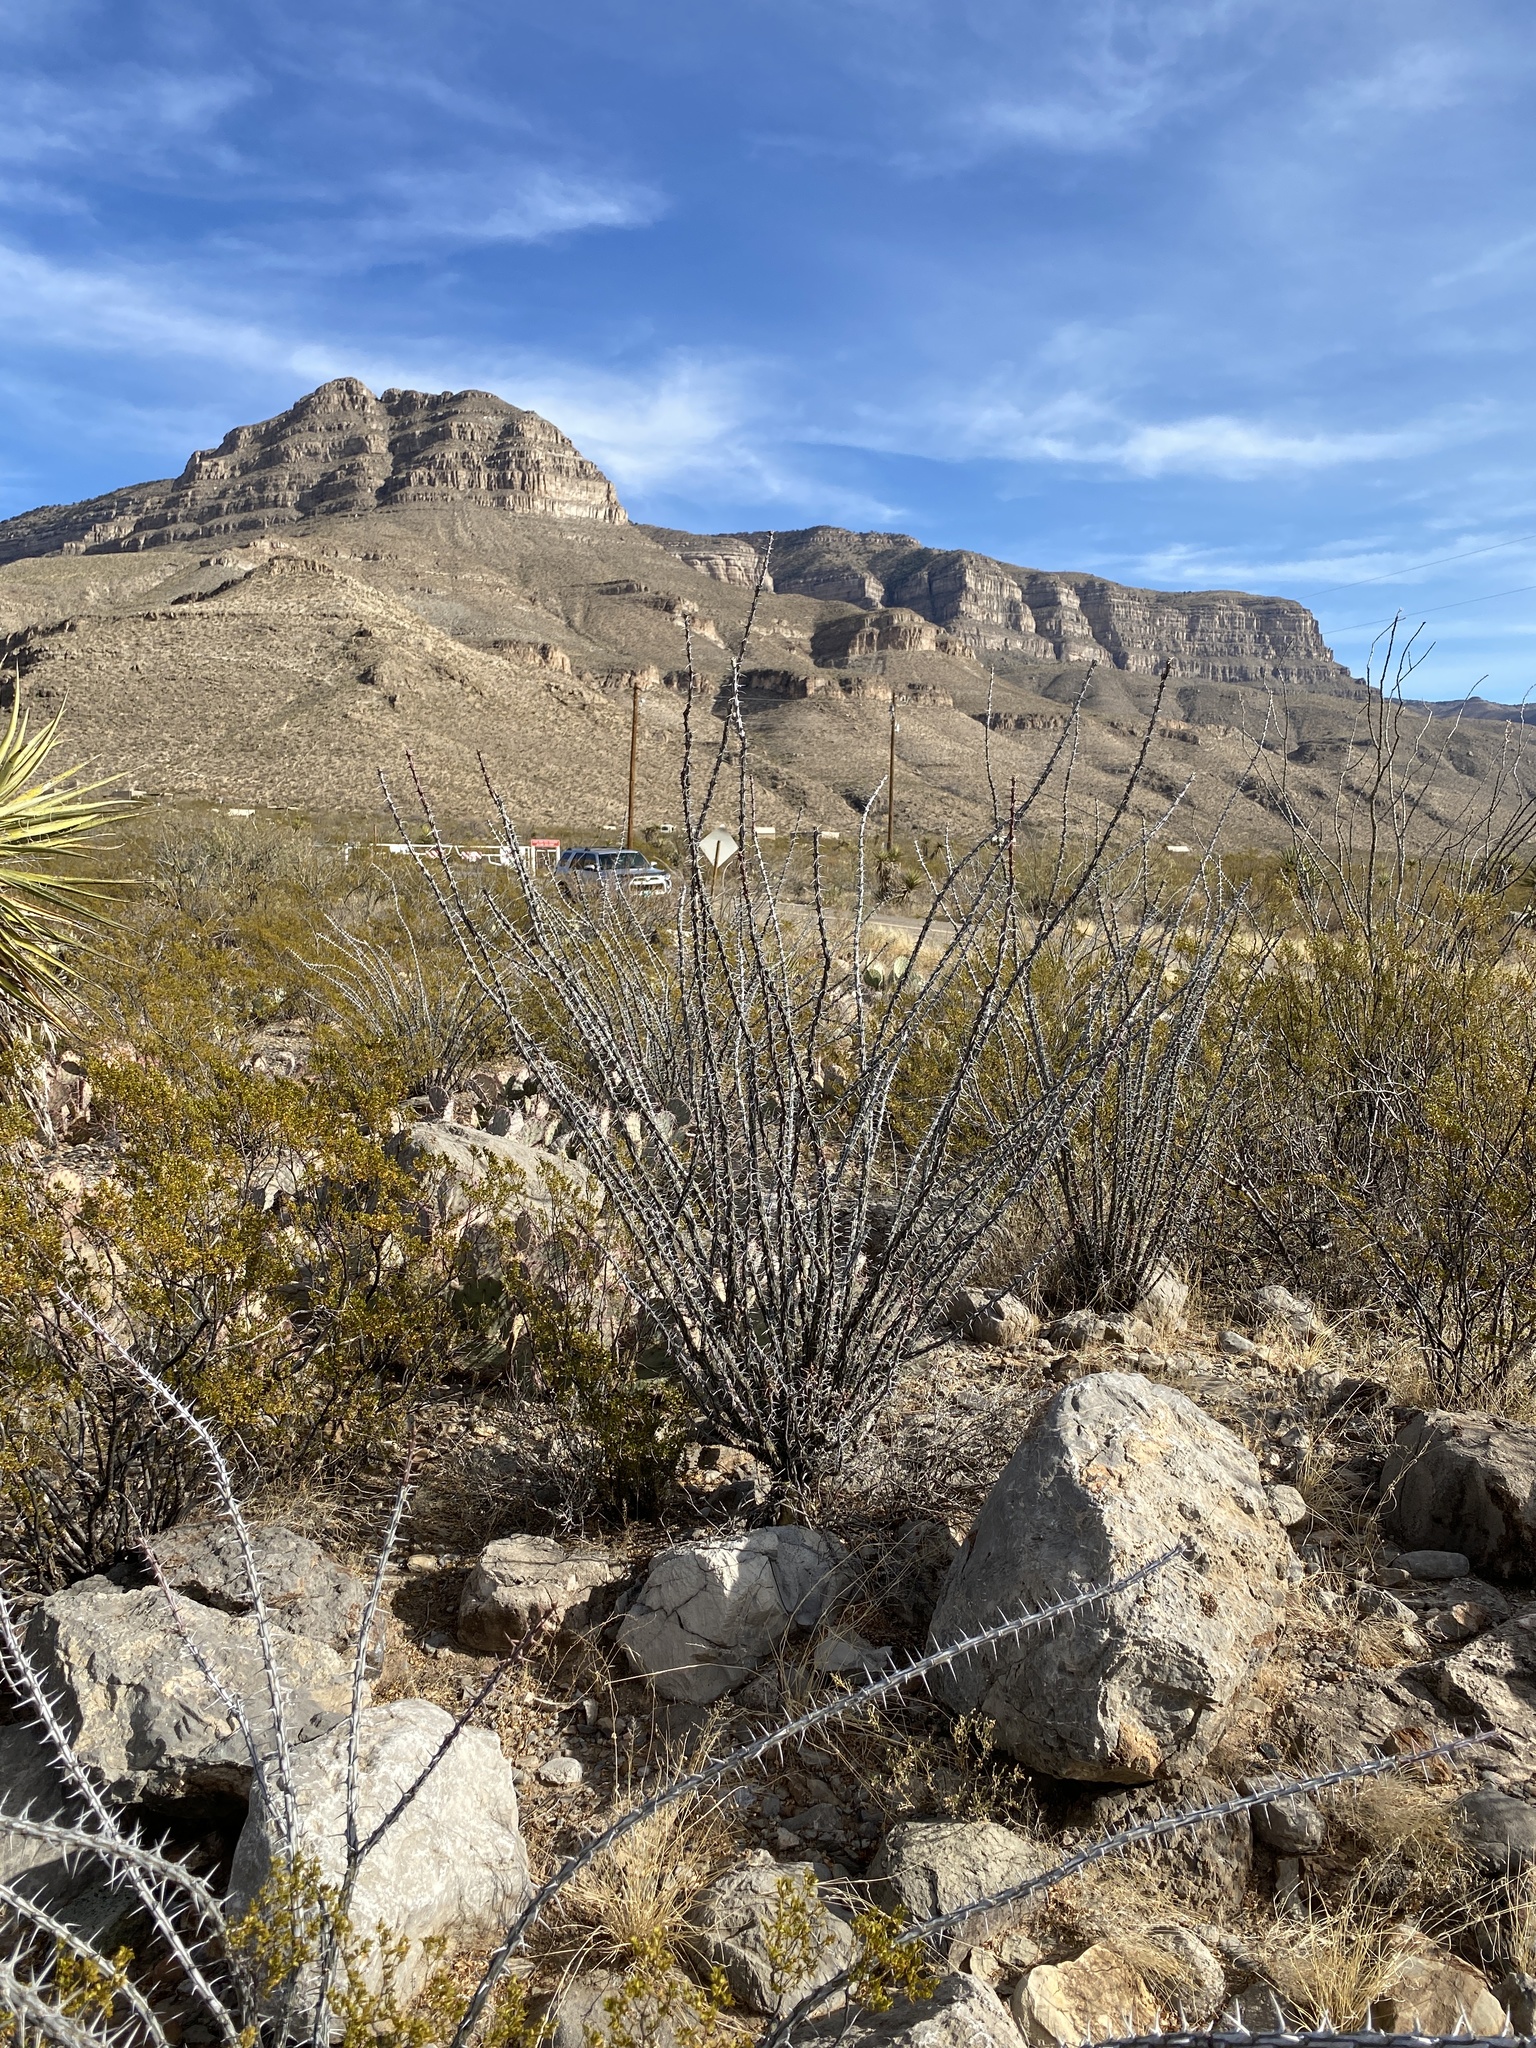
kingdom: Plantae
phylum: Tracheophyta
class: Magnoliopsida
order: Ericales
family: Fouquieriaceae
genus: Fouquieria
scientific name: Fouquieria splendens
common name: Vine-cactus
